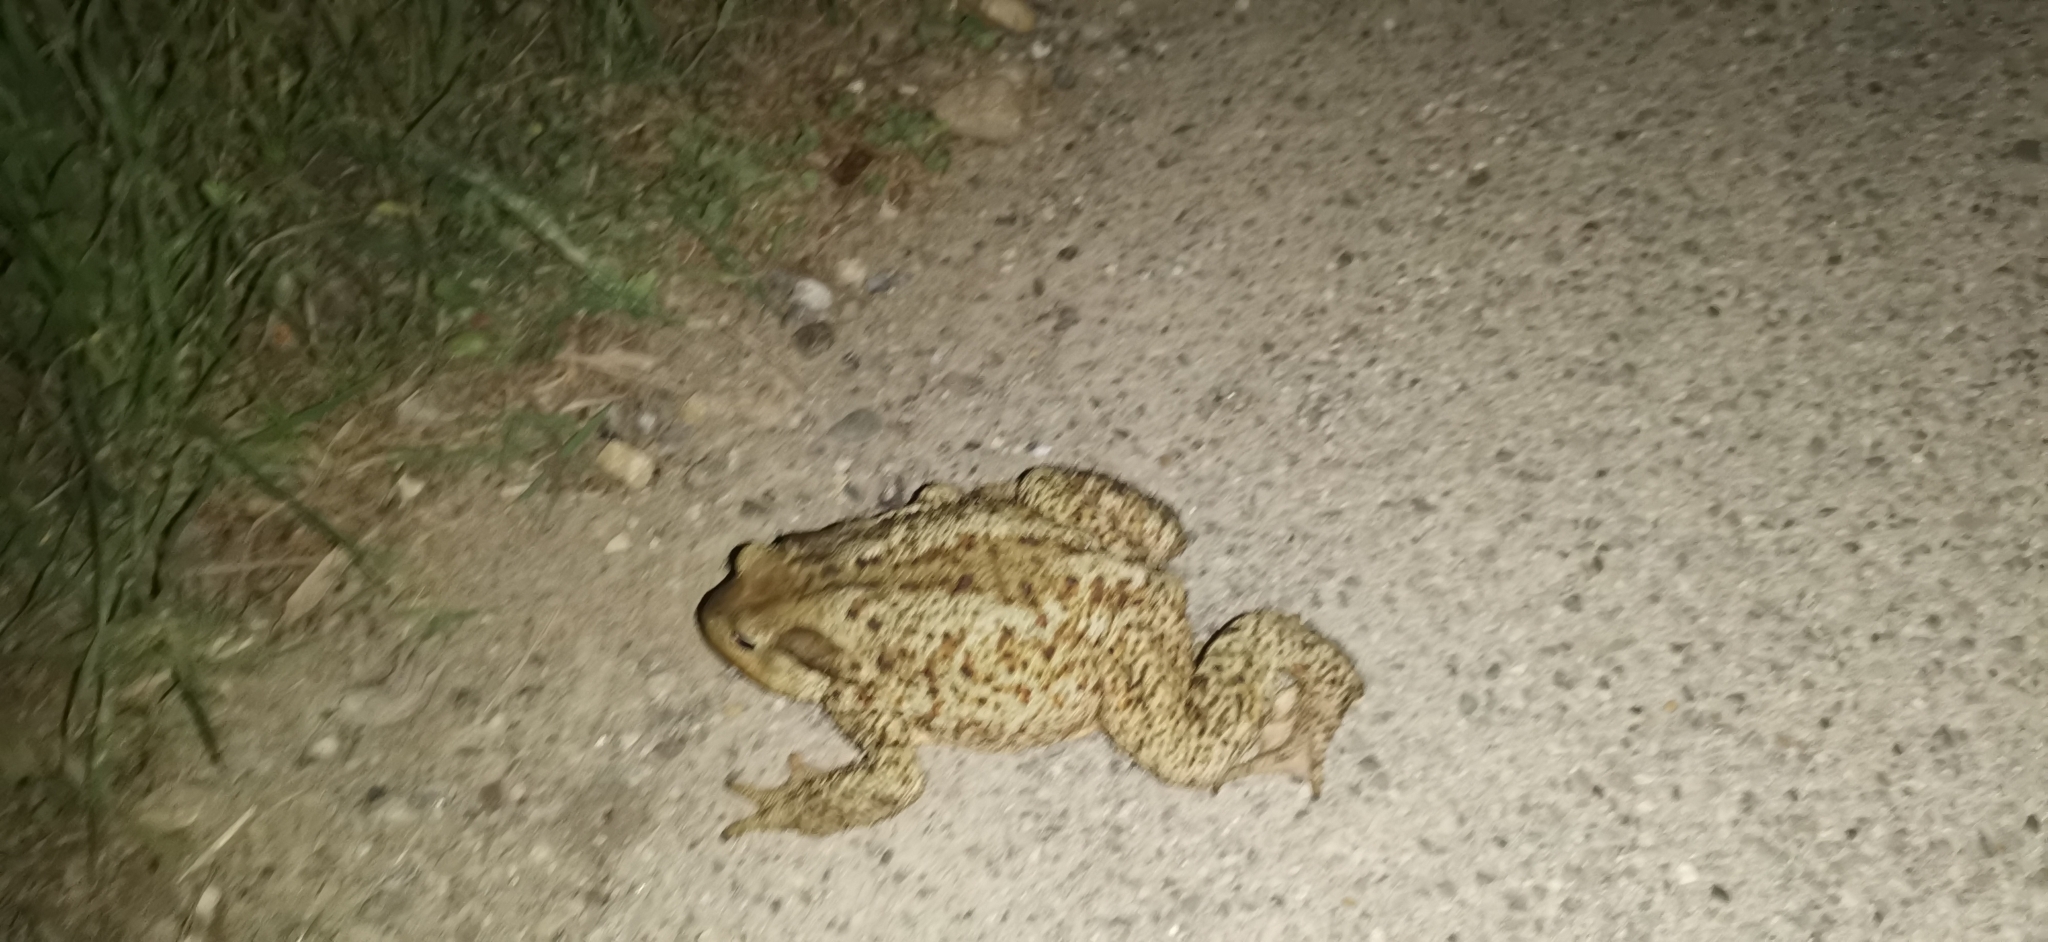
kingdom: Animalia
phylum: Chordata
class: Amphibia
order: Anura
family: Bufonidae
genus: Bufo
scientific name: Bufo bufo
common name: Common toad
